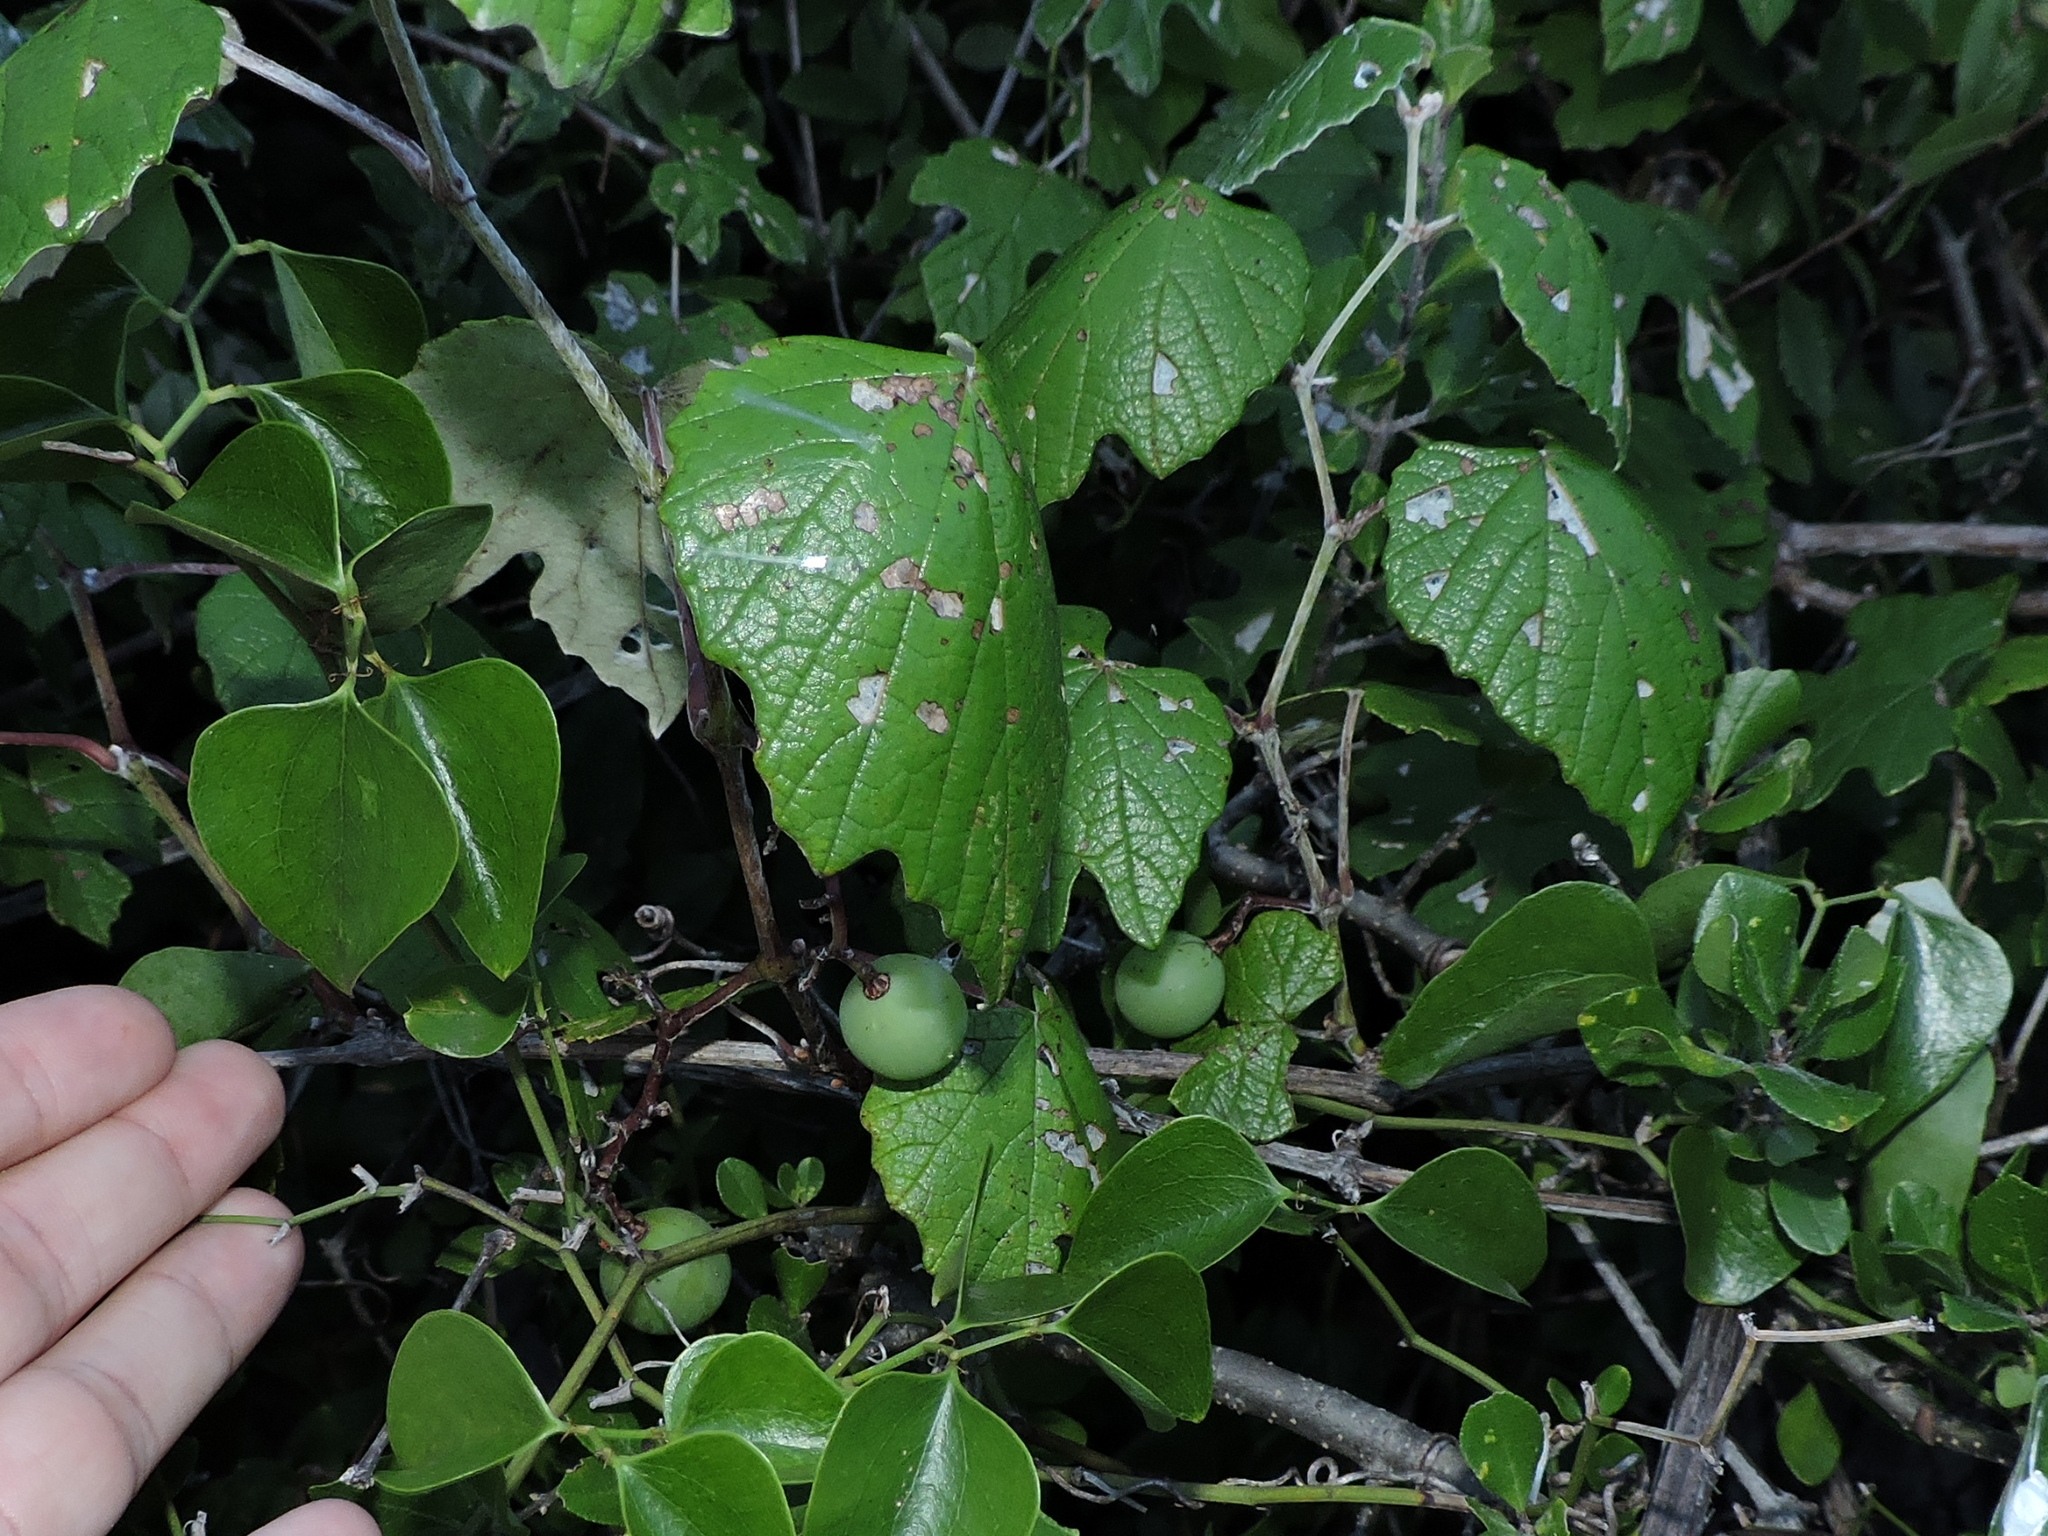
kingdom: Plantae
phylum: Tracheophyta
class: Magnoliopsida
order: Vitales
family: Vitaceae
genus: Vitis
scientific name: Vitis mustangensis
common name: Mustang grape
